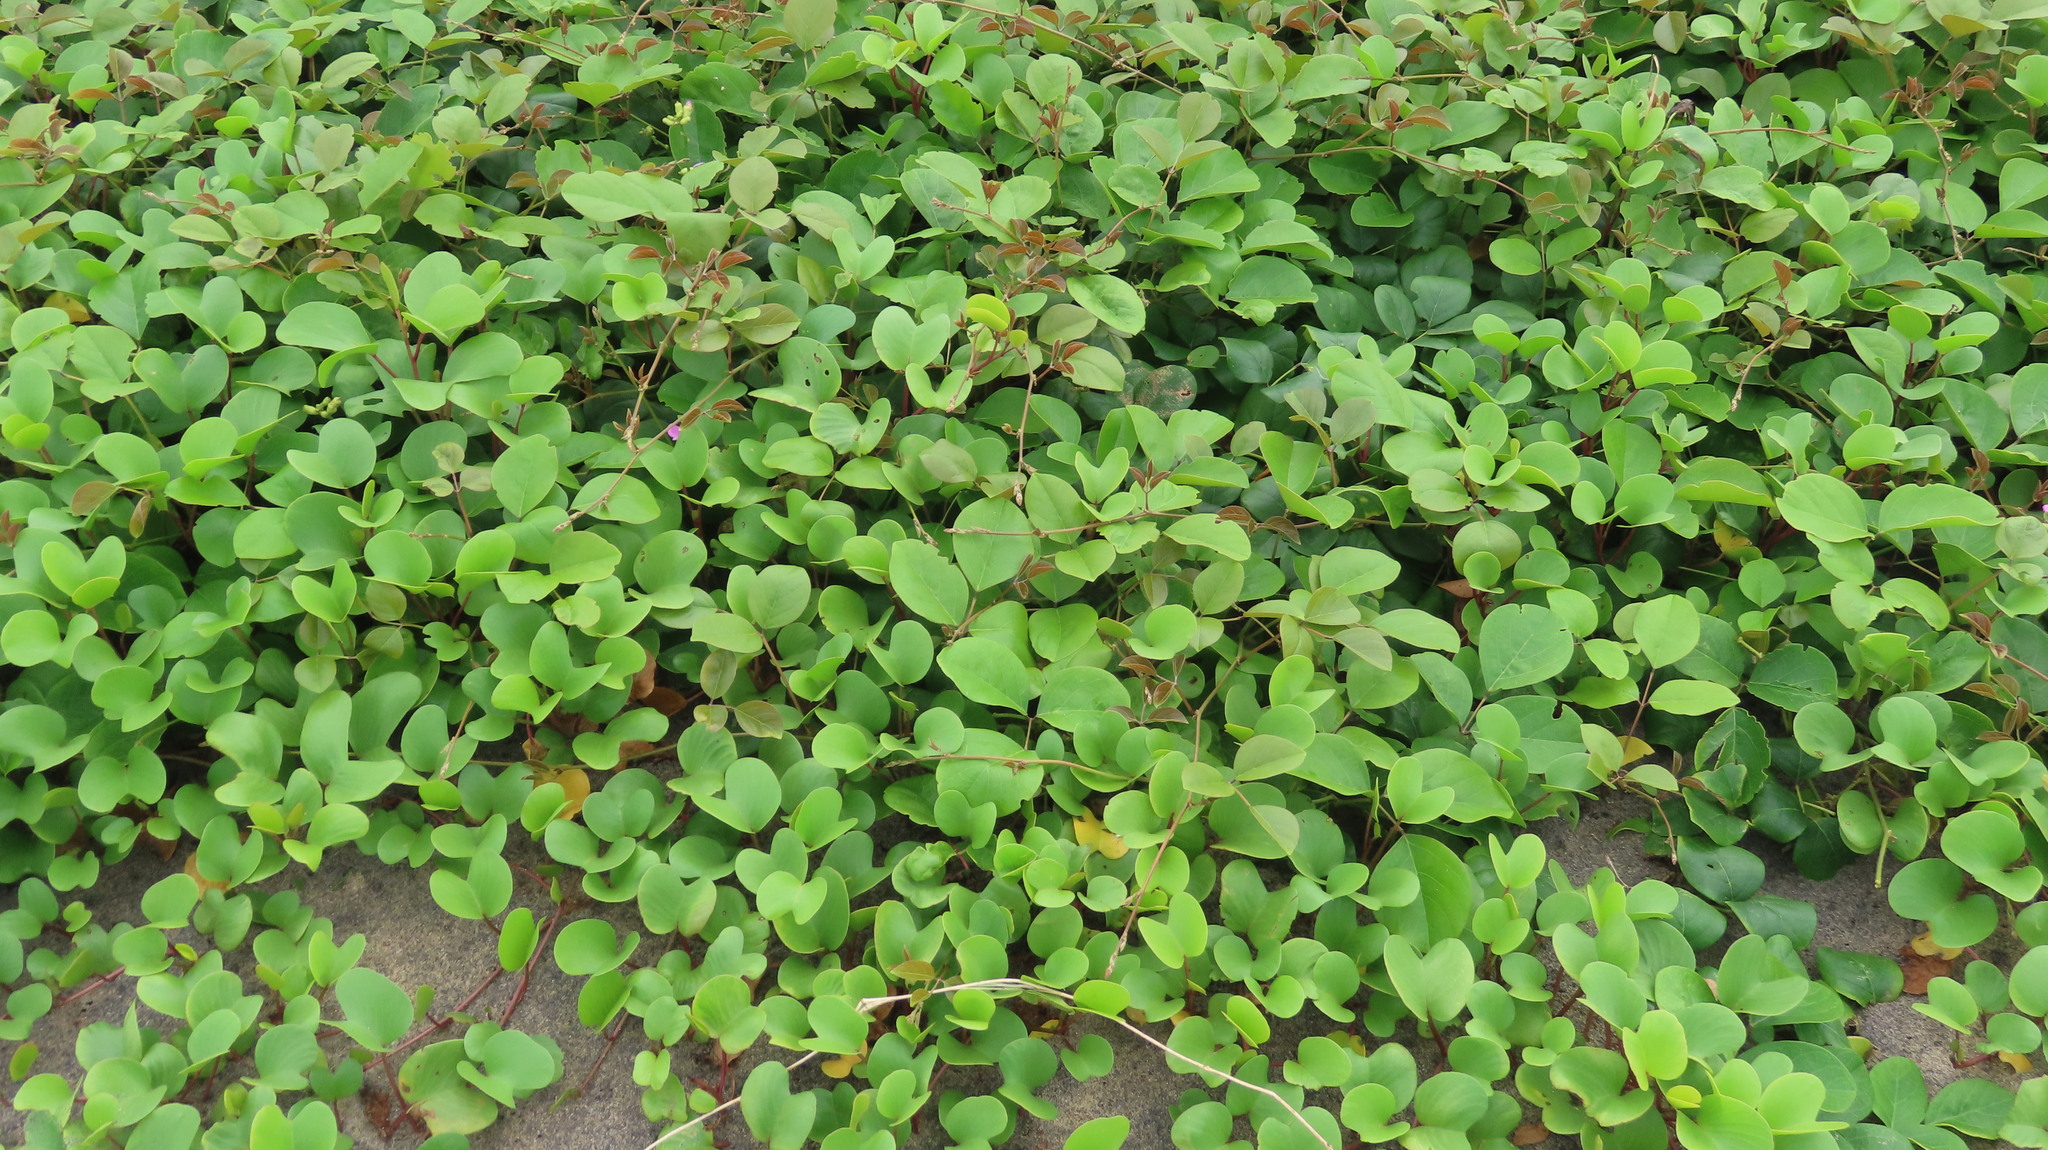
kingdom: Plantae
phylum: Tracheophyta
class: Magnoliopsida
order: Solanales
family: Convolvulaceae
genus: Ipomoea
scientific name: Ipomoea pes-caprae
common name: Beach morning glory
